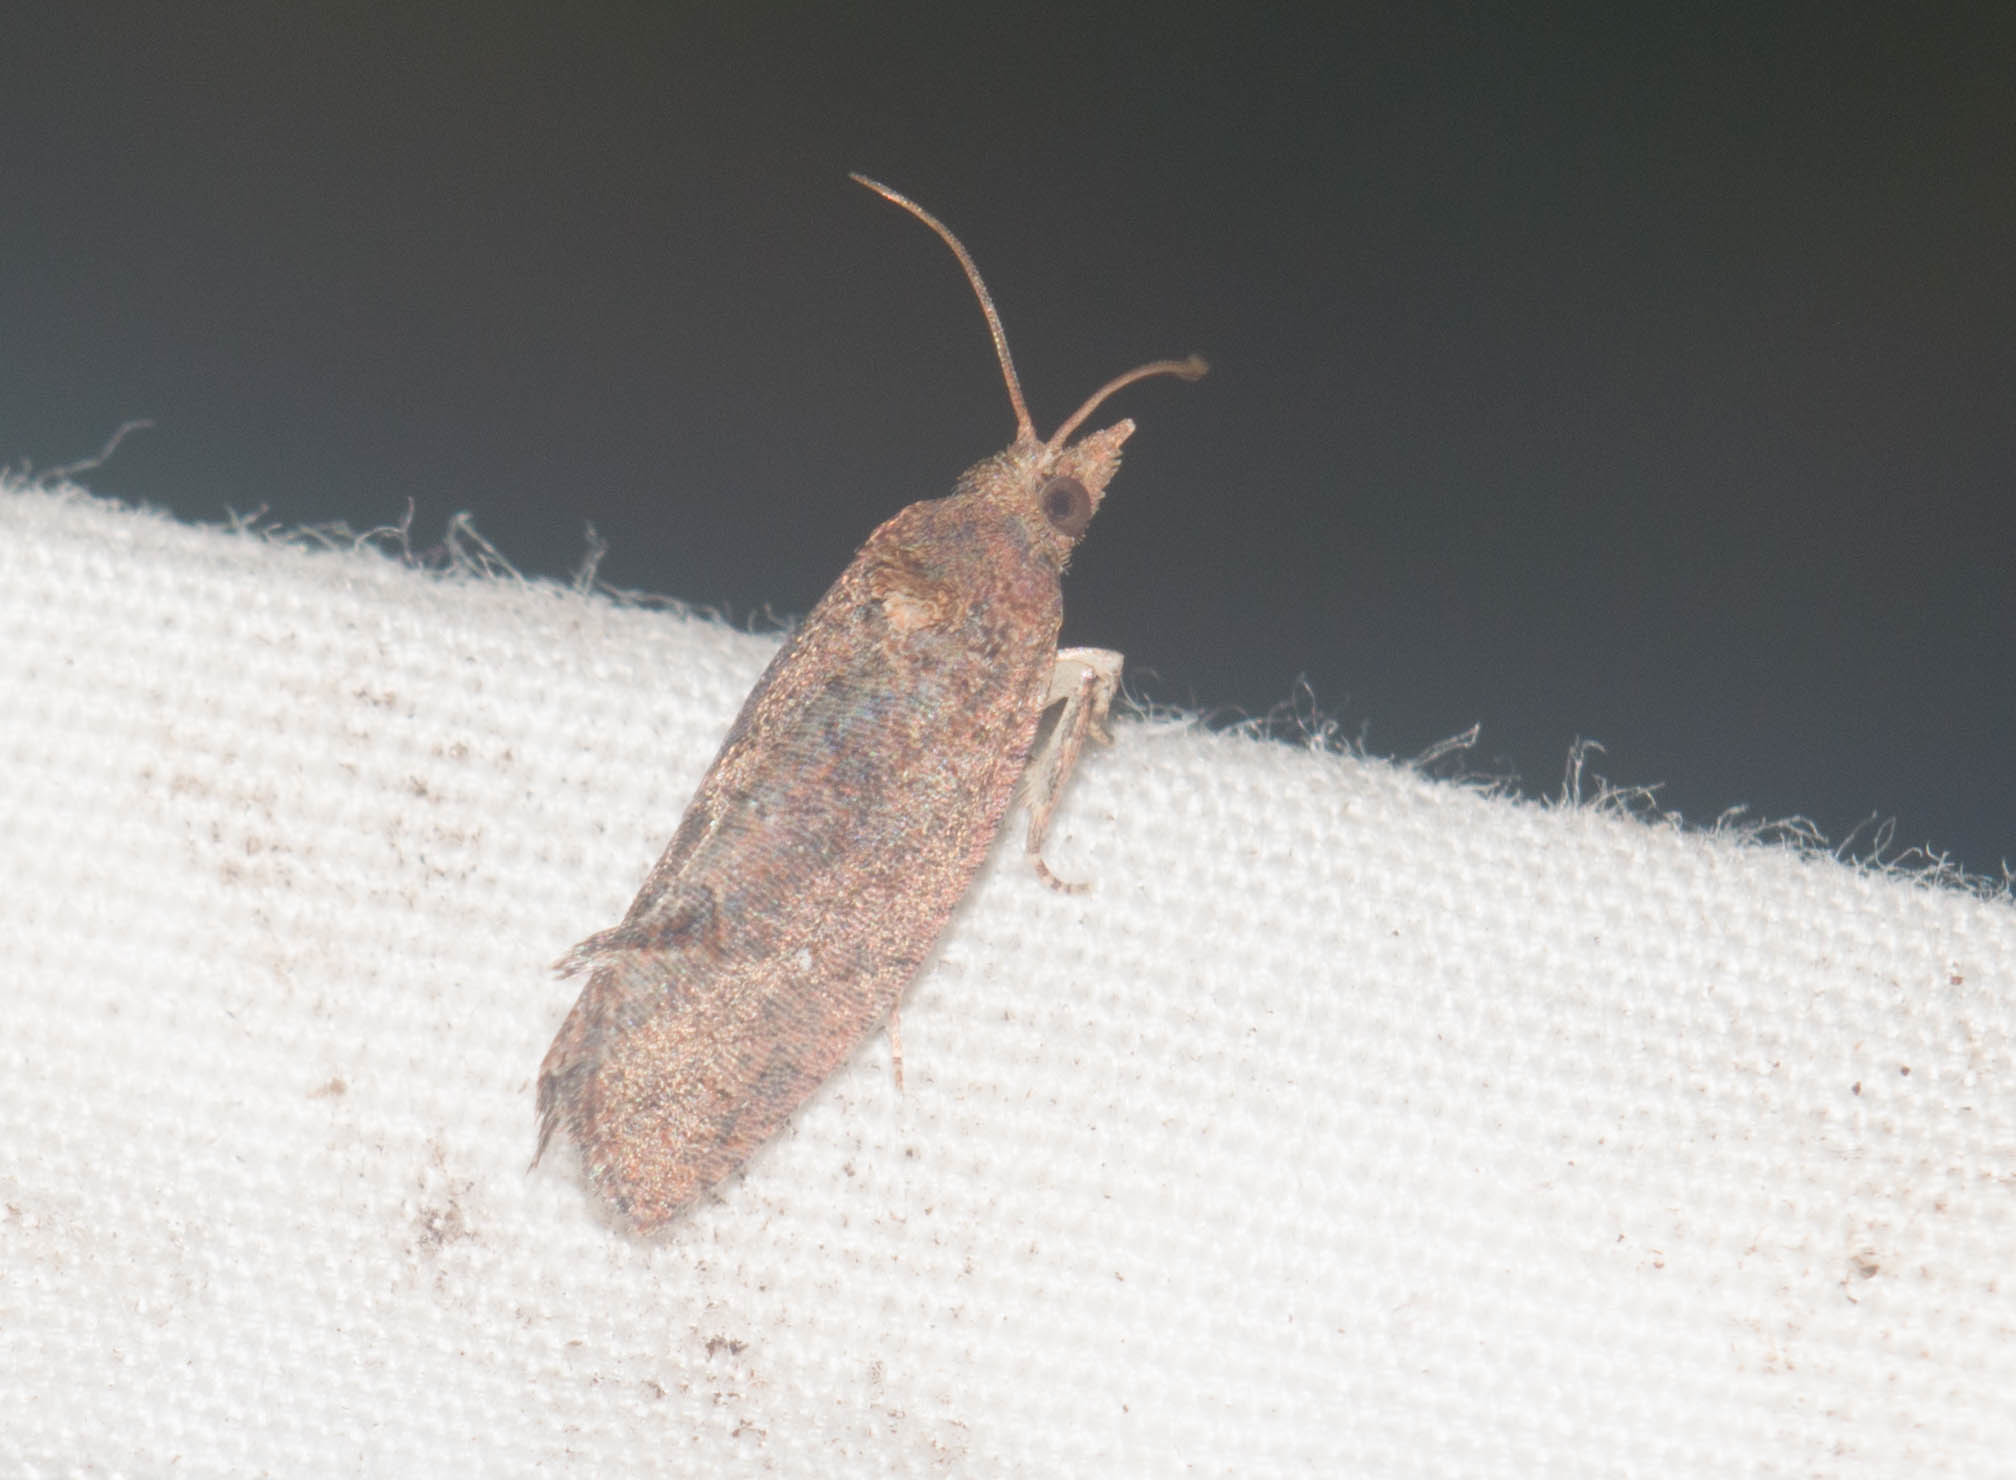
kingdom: Animalia
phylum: Arthropoda
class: Insecta
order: Lepidoptera
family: Tortricidae
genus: Cryptophlebia
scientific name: Cryptophlebia illepida
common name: Moth
